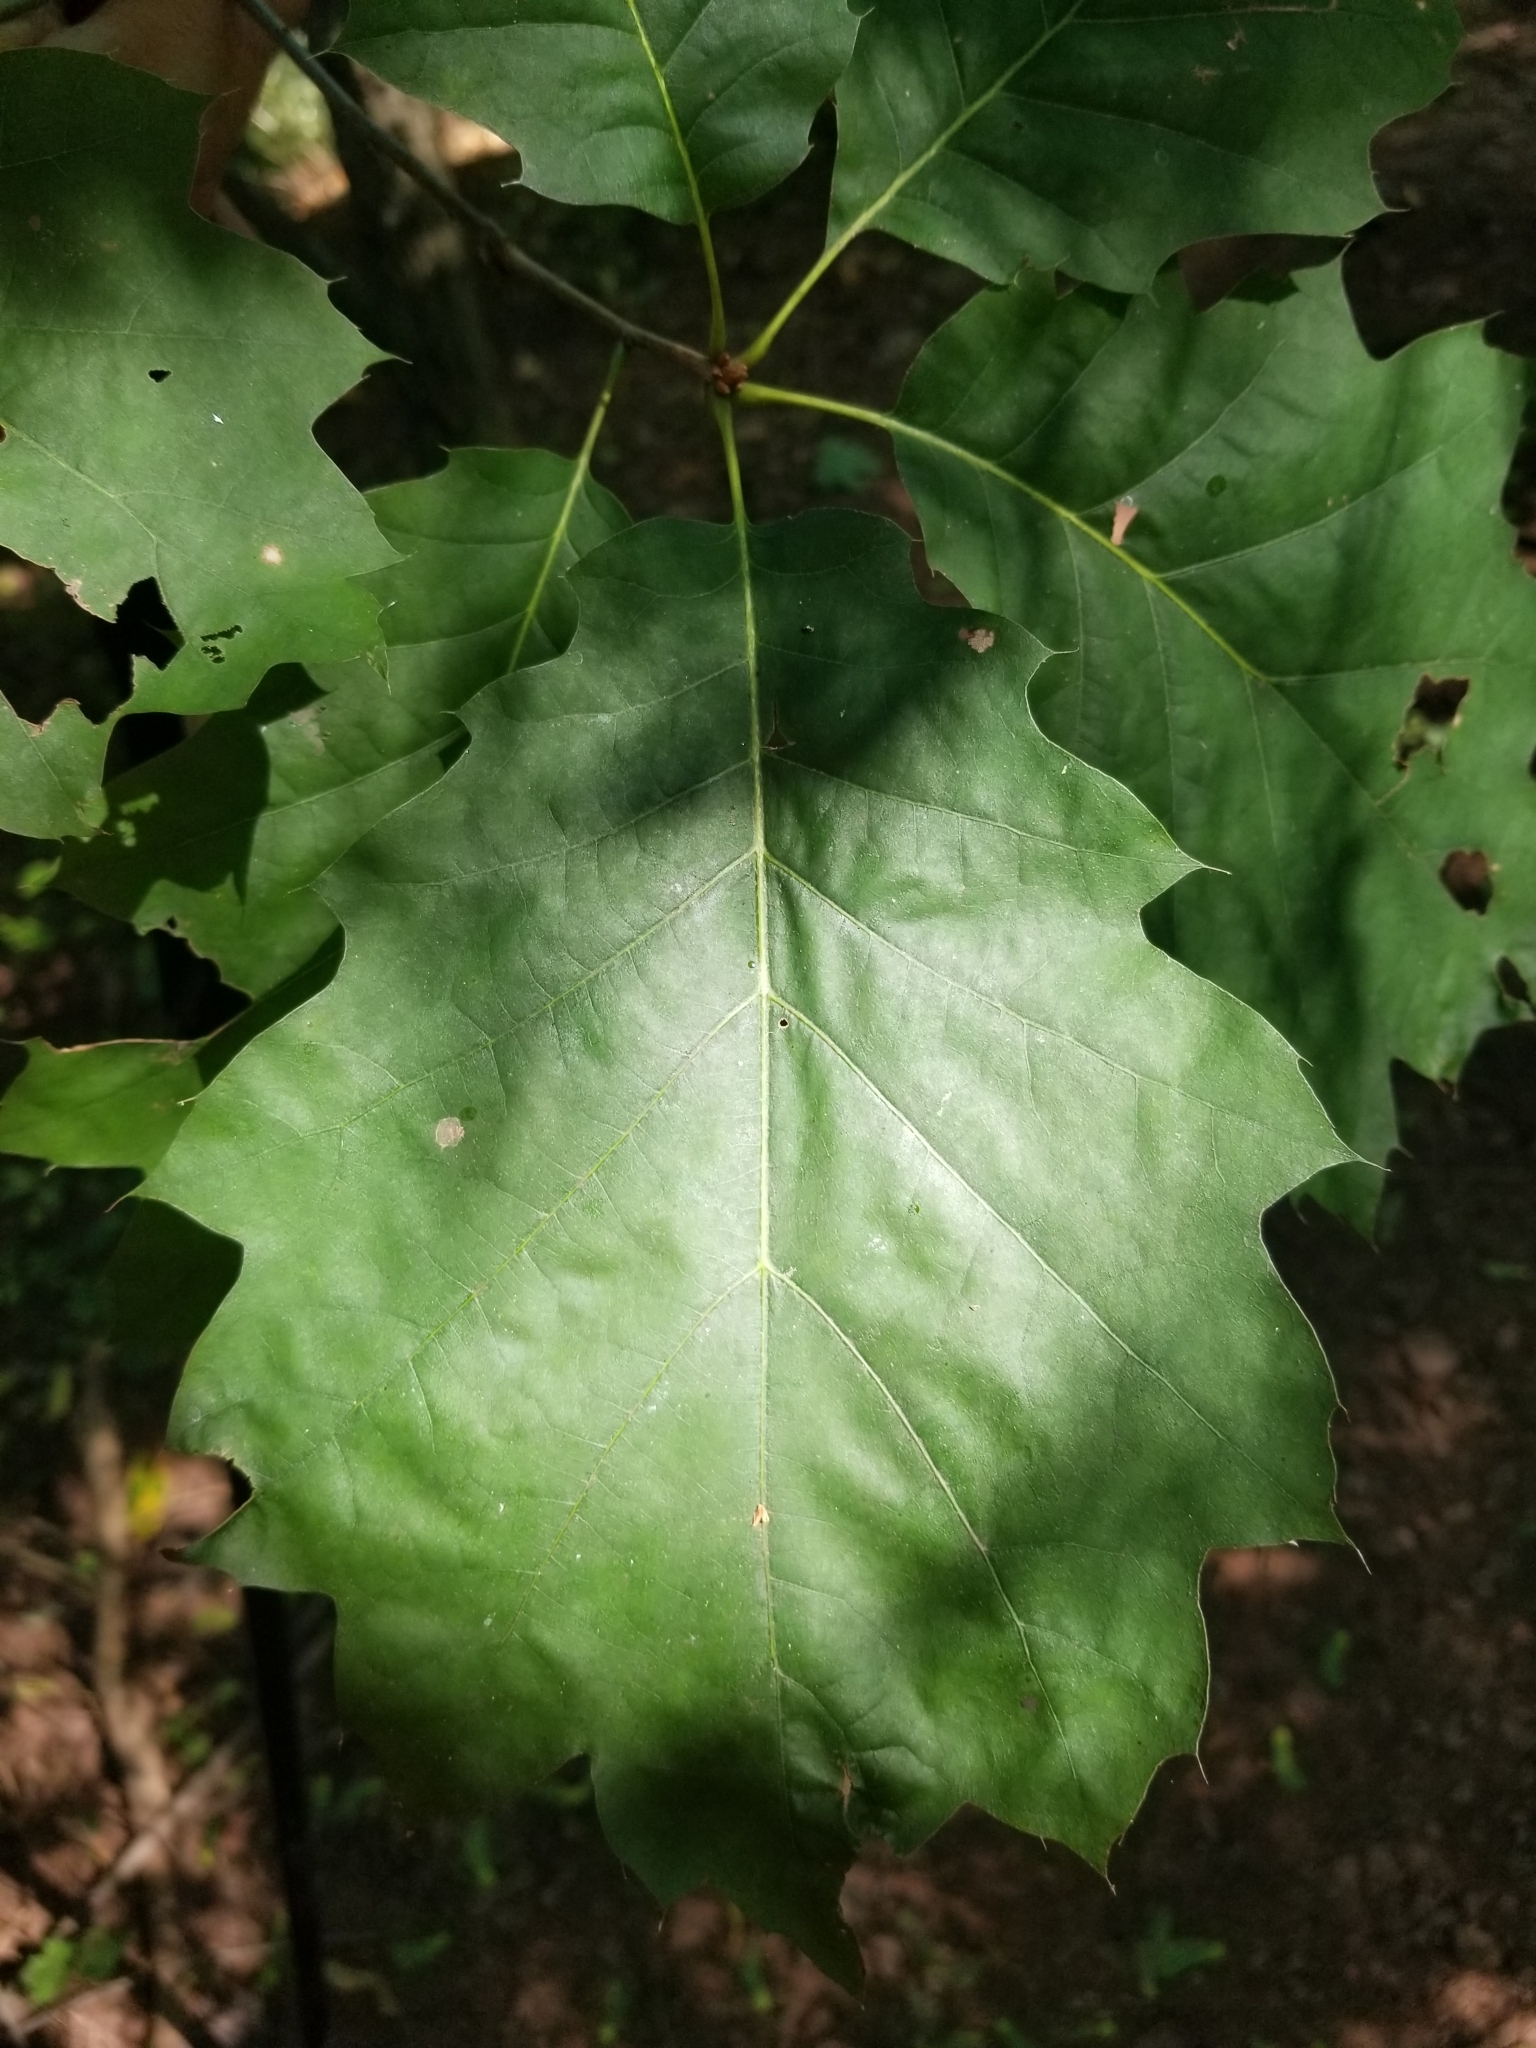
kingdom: Plantae
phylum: Tracheophyta
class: Magnoliopsida
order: Fagales
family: Fagaceae
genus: Quercus
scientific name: Quercus rubra
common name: Red oak
